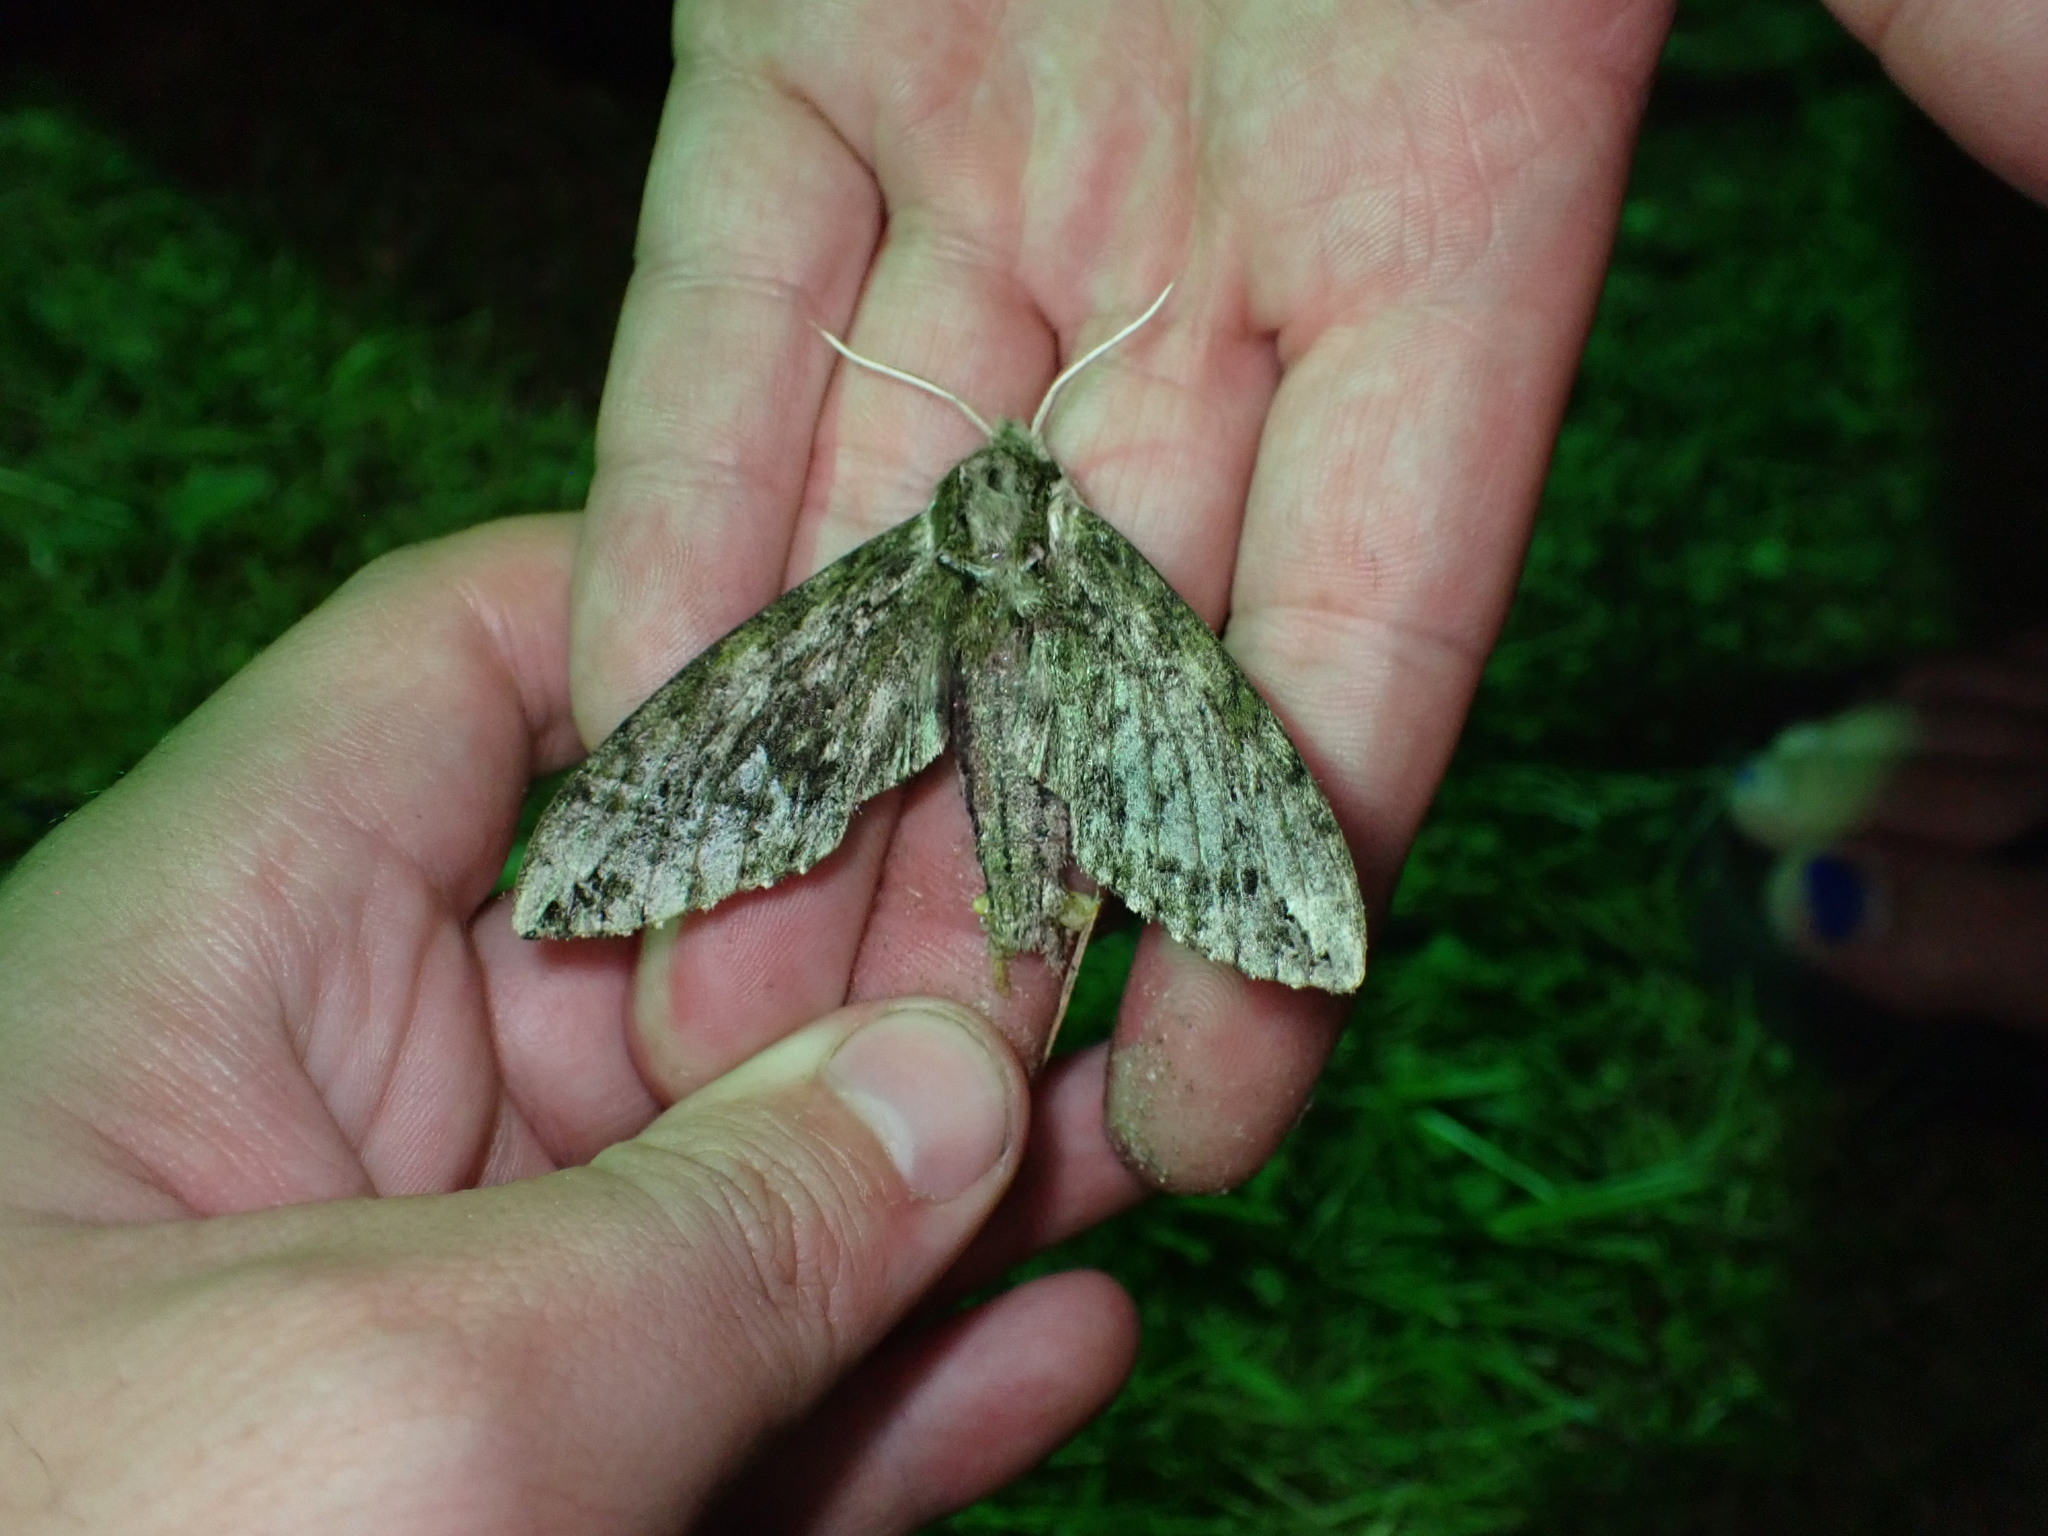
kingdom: Animalia
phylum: Arthropoda
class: Insecta
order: Lepidoptera
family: Sphingidae
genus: Ceratomia
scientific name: Ceratomia hageni
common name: Hagen's sphinx
